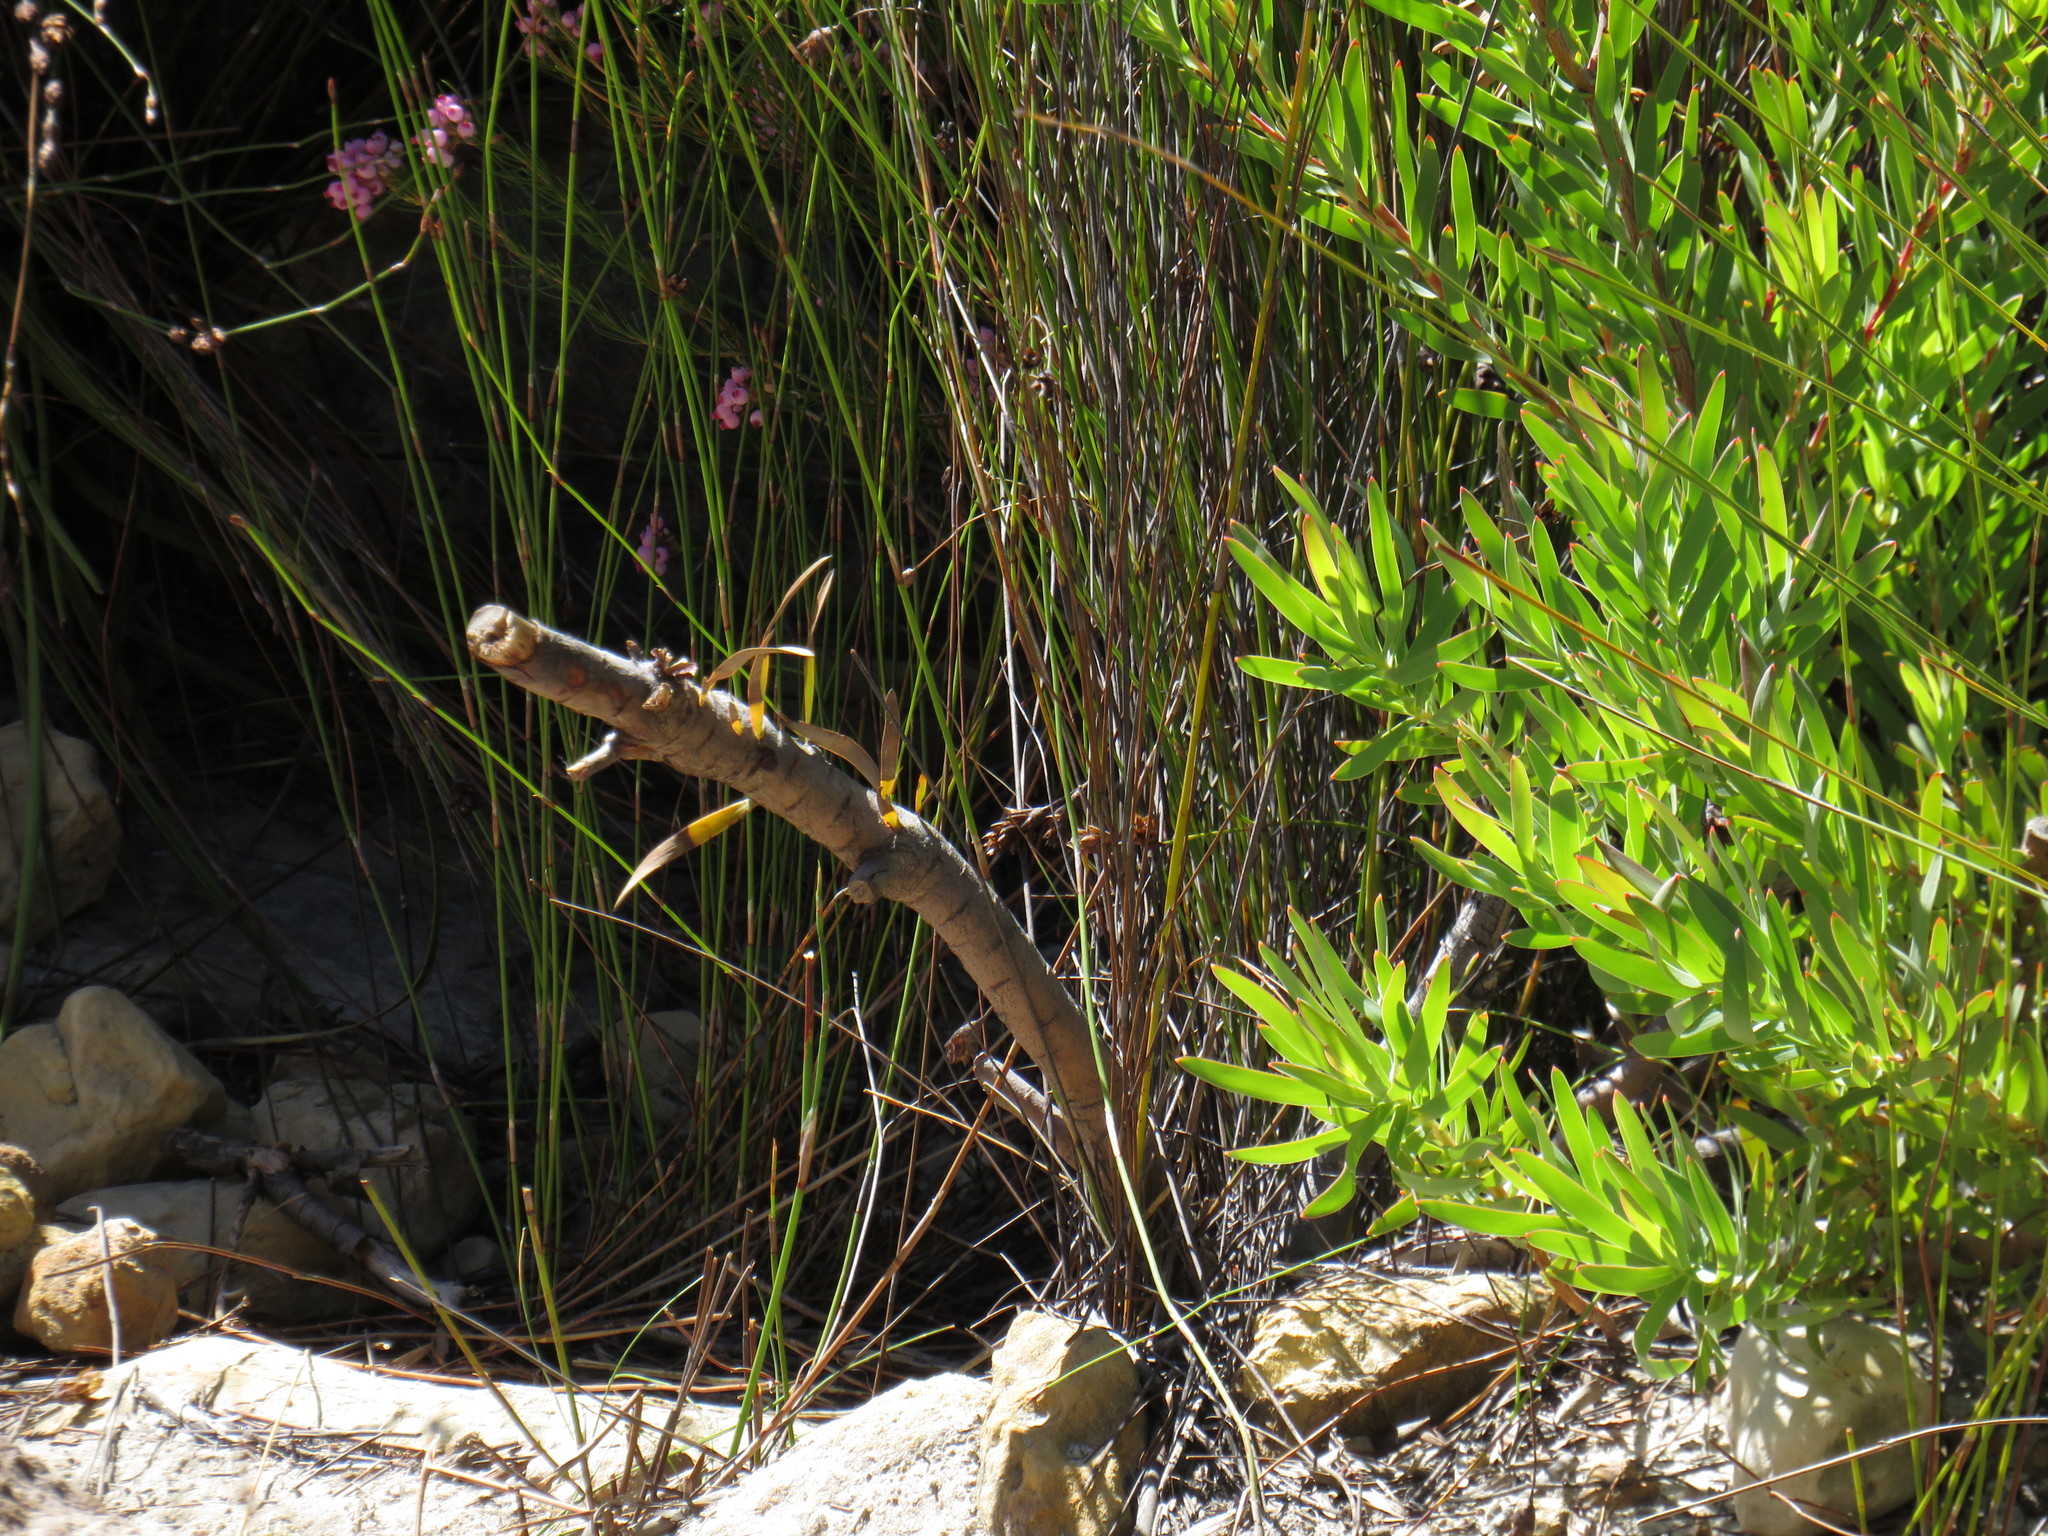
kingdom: Plantae
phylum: Tracheophyta
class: Magnoliopsida
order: Proteales
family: Proteaceae
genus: Leucadendron
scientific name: Leucadendron diemontianum
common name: Visgat conebush
